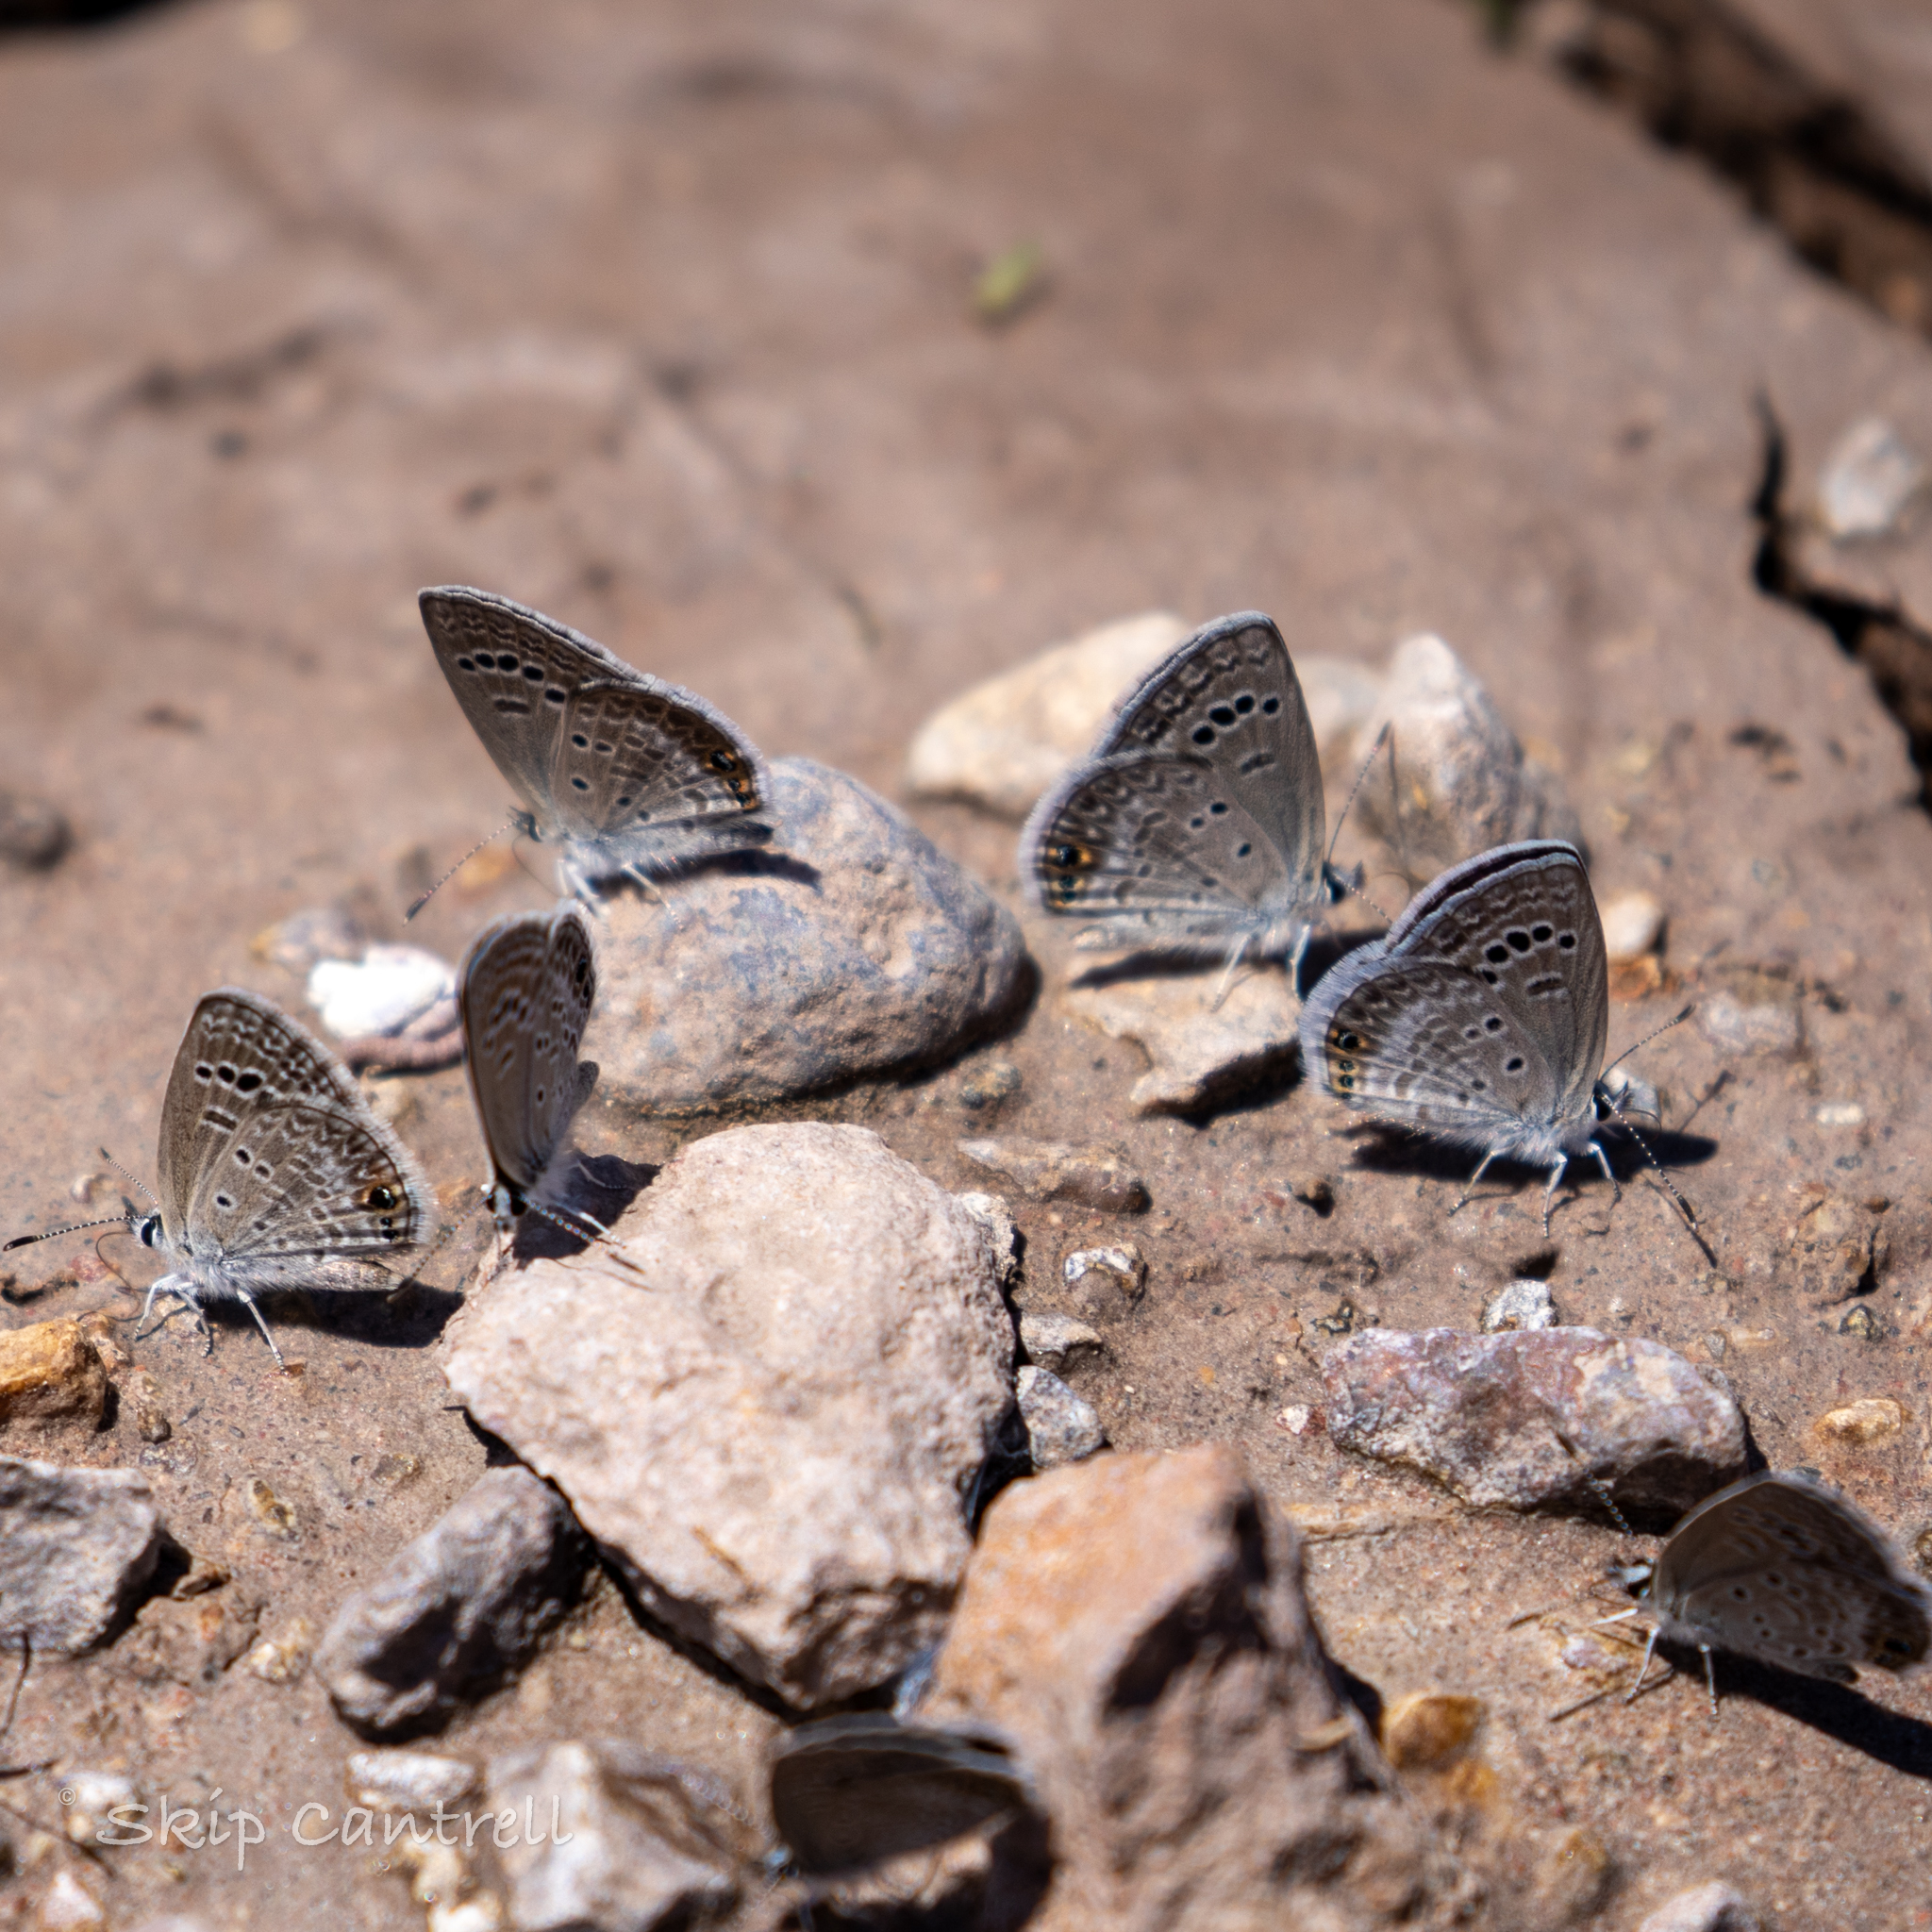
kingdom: Animalia
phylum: Arthropoda
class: Insecta
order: Lepidoptera
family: Lycaenidae
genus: Echinargus
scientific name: Echinargus isola
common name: Reakirt's blue
